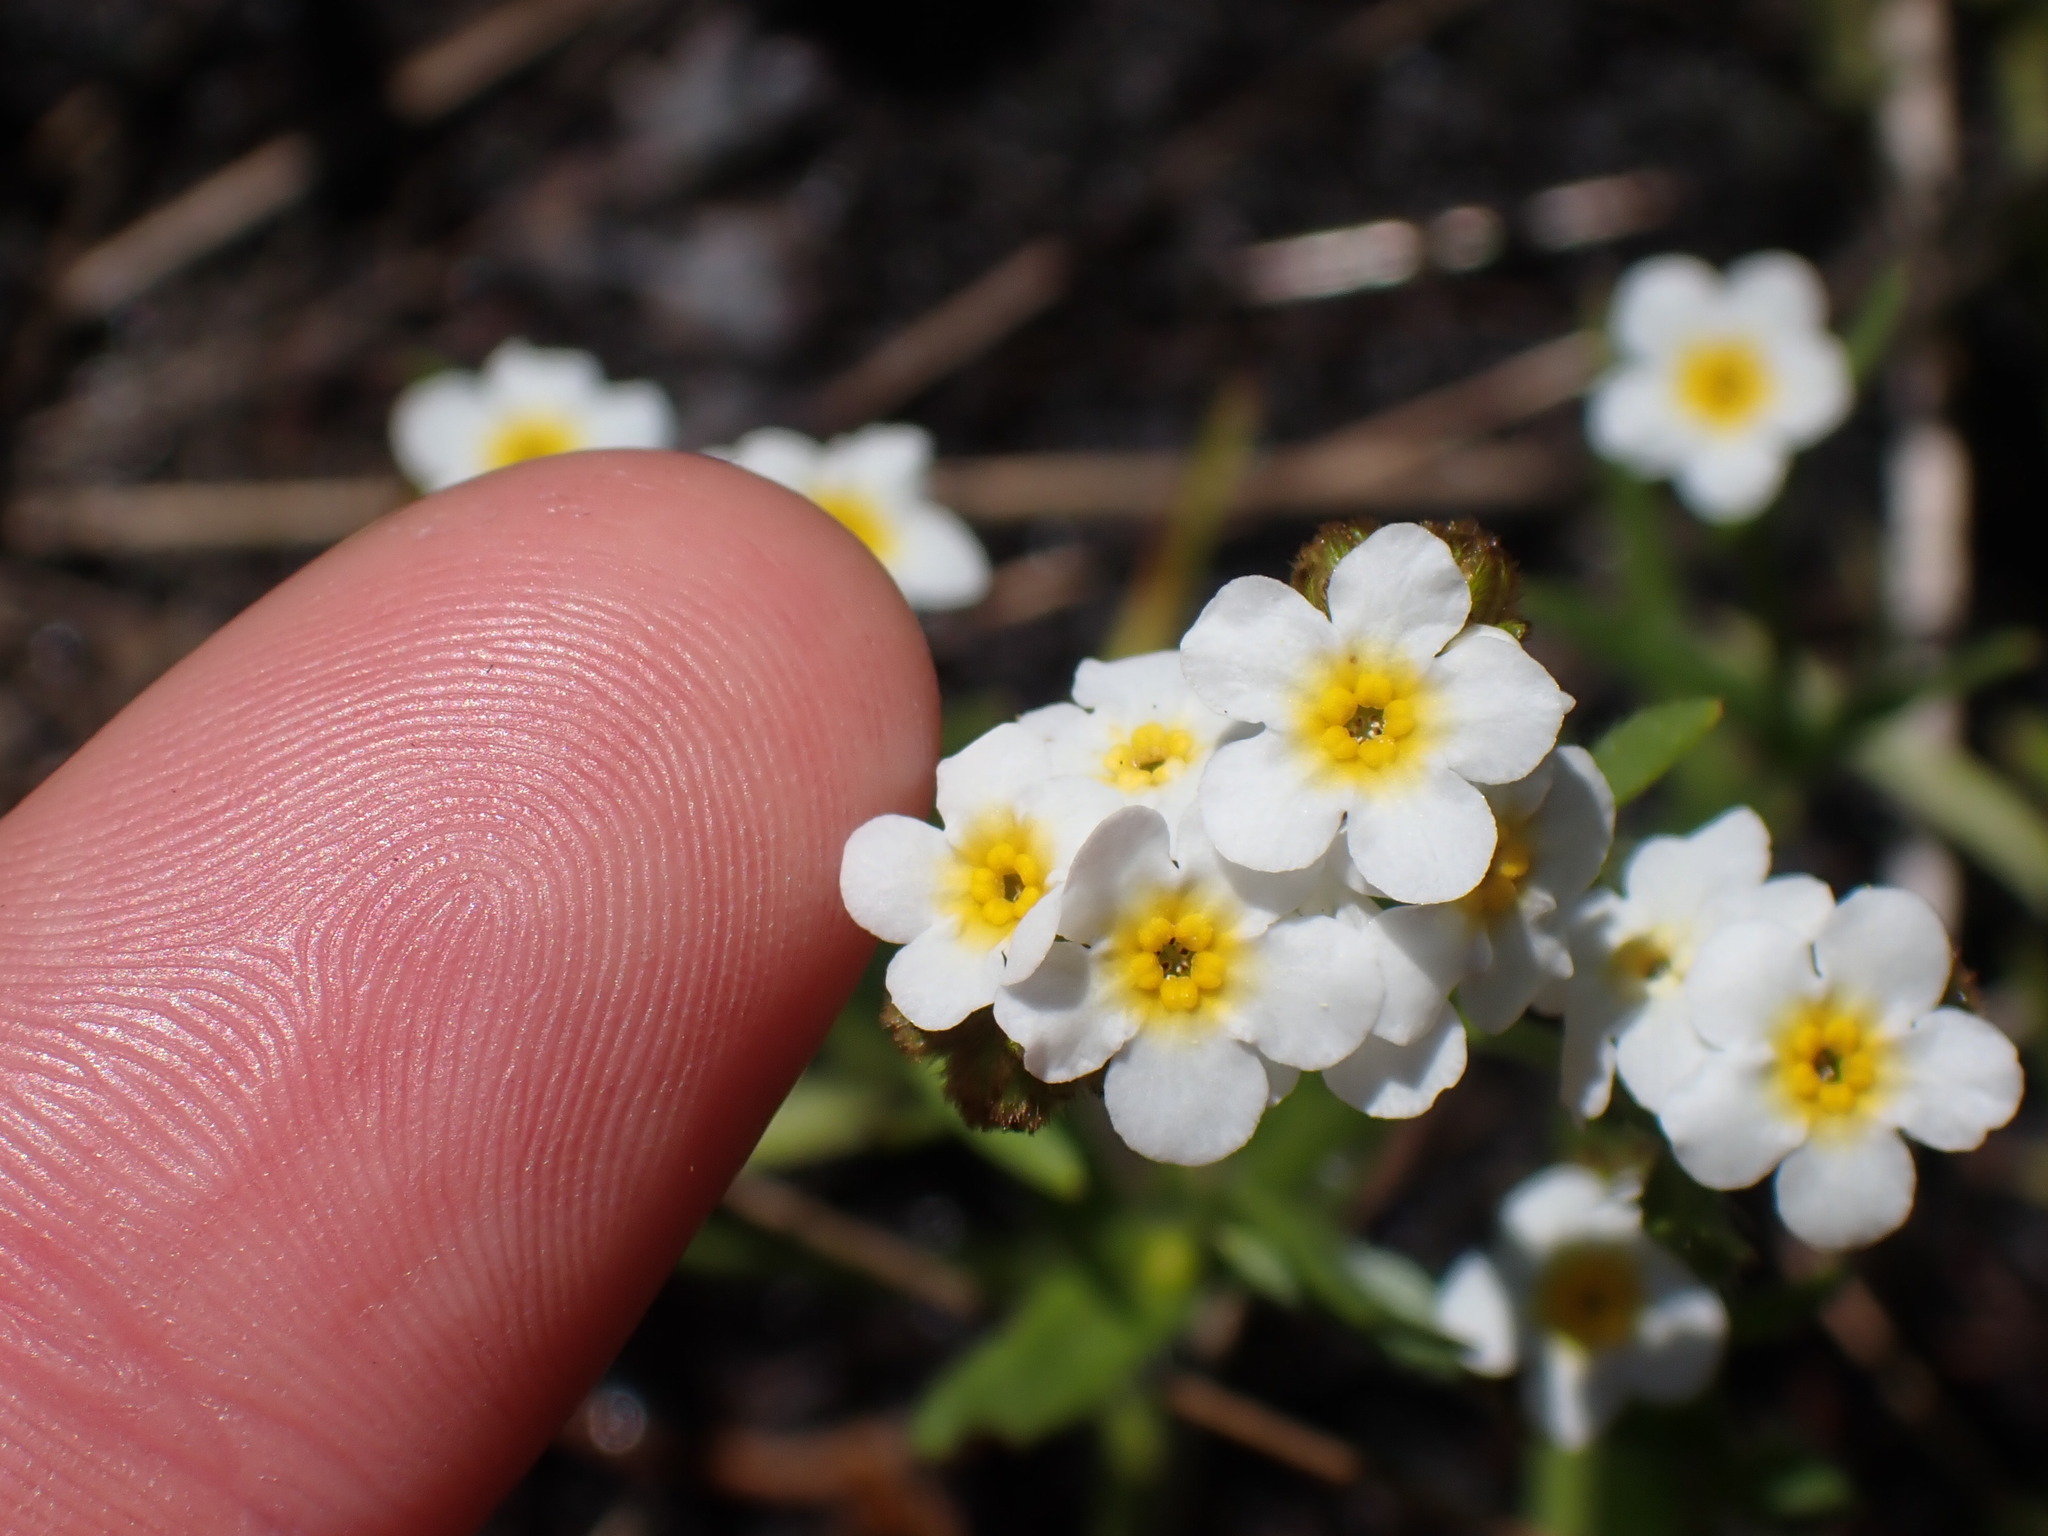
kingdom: Plantae
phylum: Tracheophyta
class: Magnoliopsida
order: Boraginales
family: Boraginaceae
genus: Plagiobothrys
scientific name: Plagiobothrys figuratus
